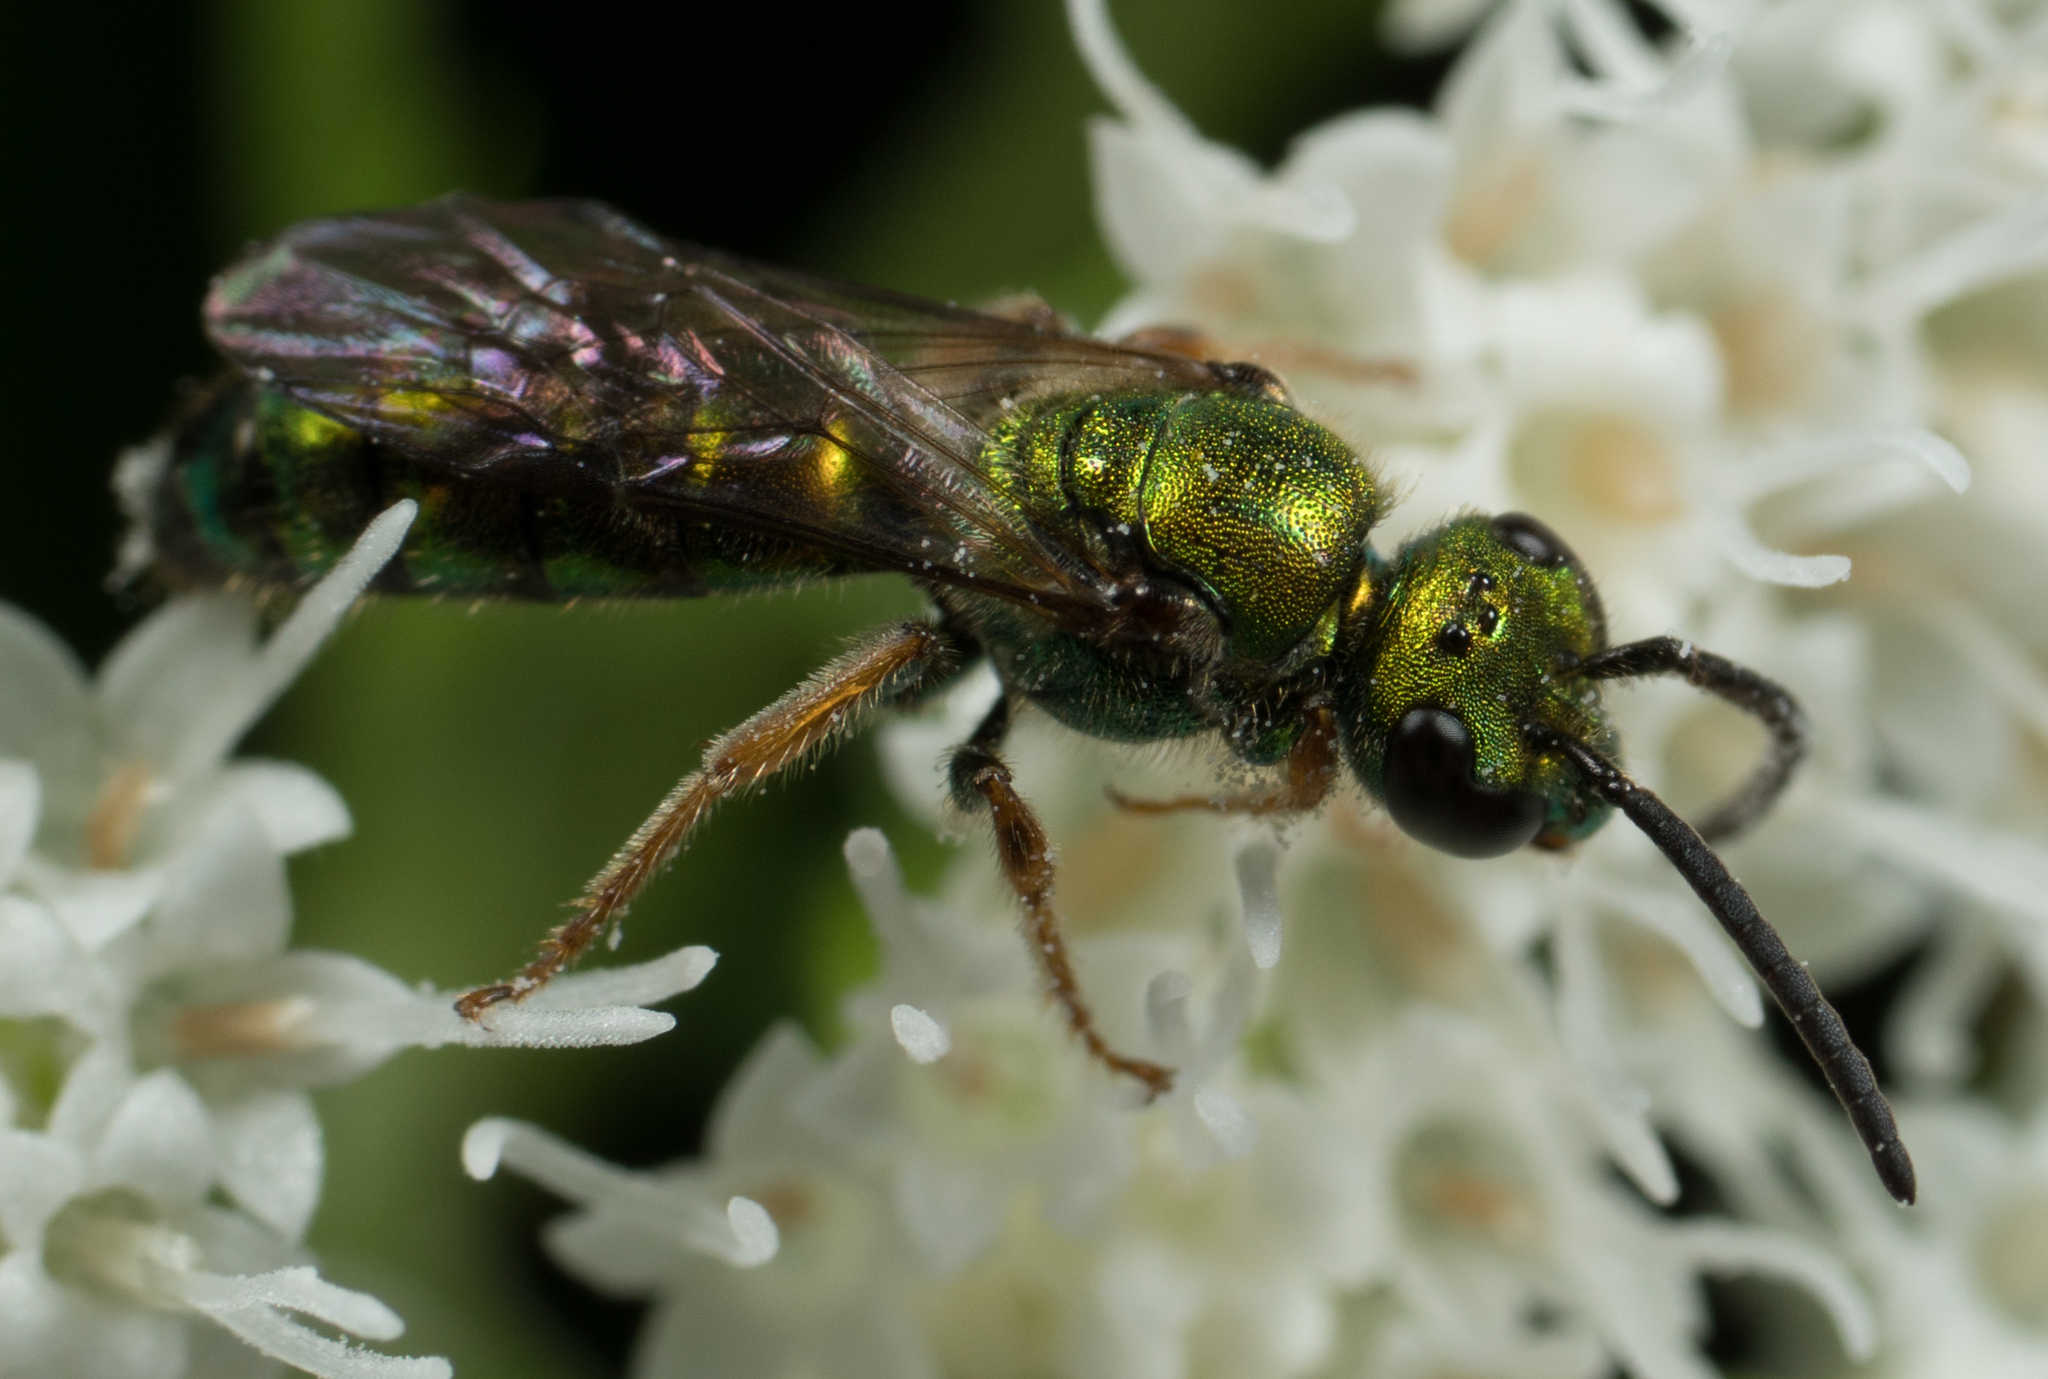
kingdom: Animalia
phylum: Arthropoda
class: Insecta
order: Hymenoptera
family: Halictidae
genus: Augochlora
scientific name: Augochlora pura
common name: Pure green sweat bee
